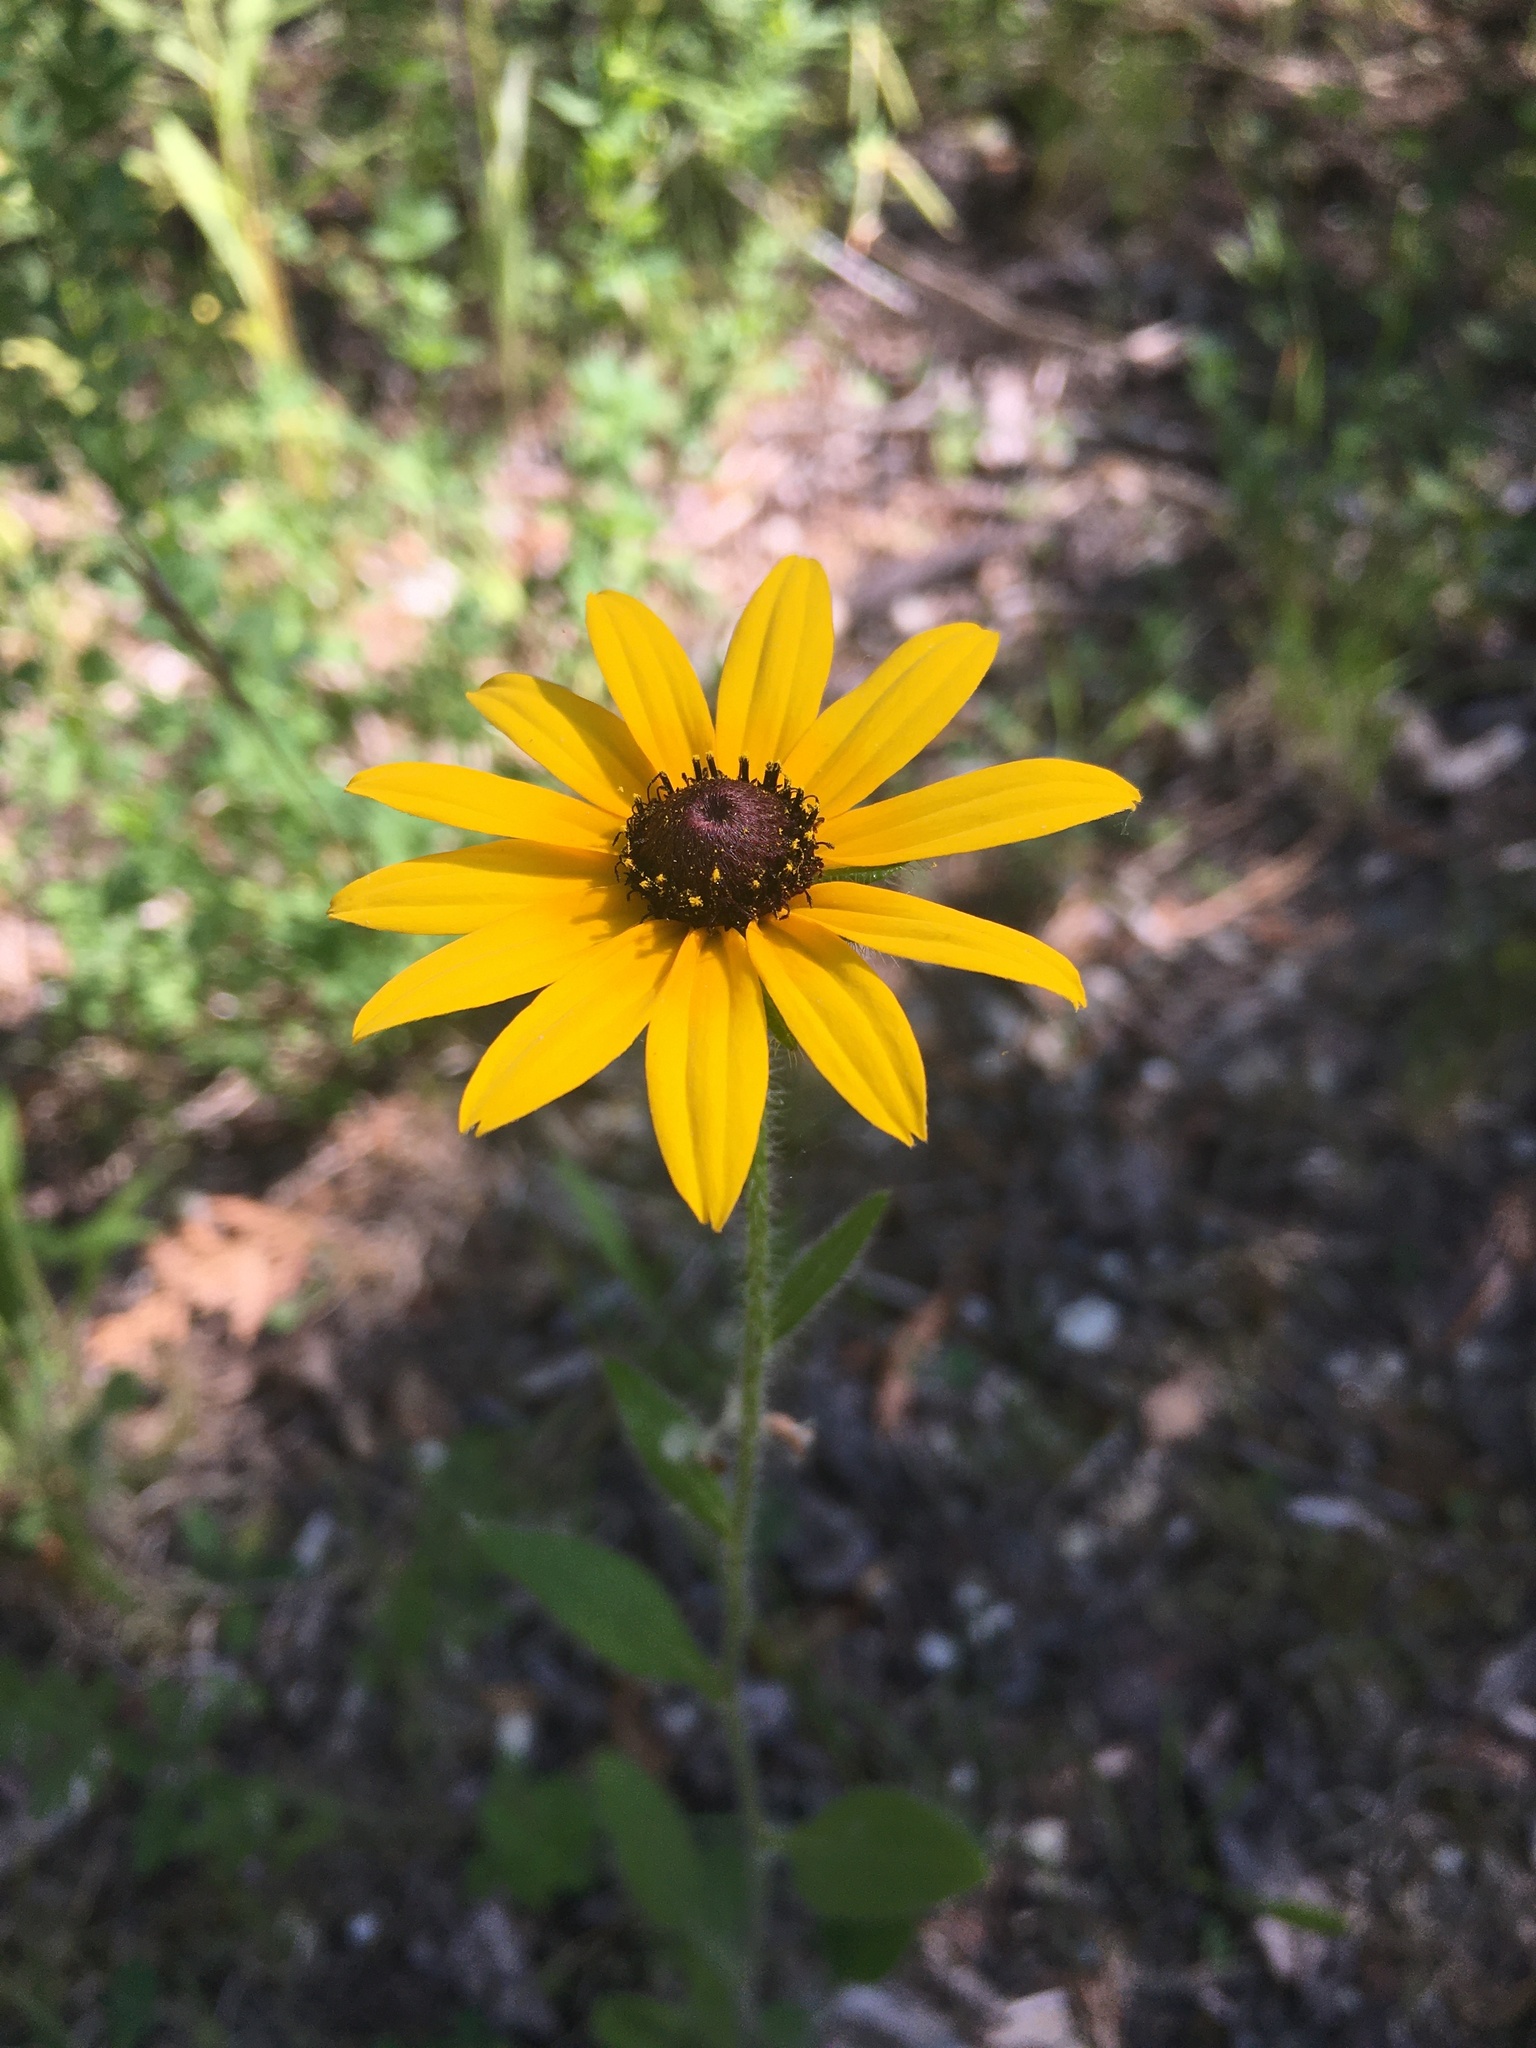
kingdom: Plantae
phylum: Tracheophyta
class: Magnoliopsida
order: Asterales
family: Asteraceae
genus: Rudbeckia
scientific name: Rudbeckia hirta
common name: Black-eyed-susan
